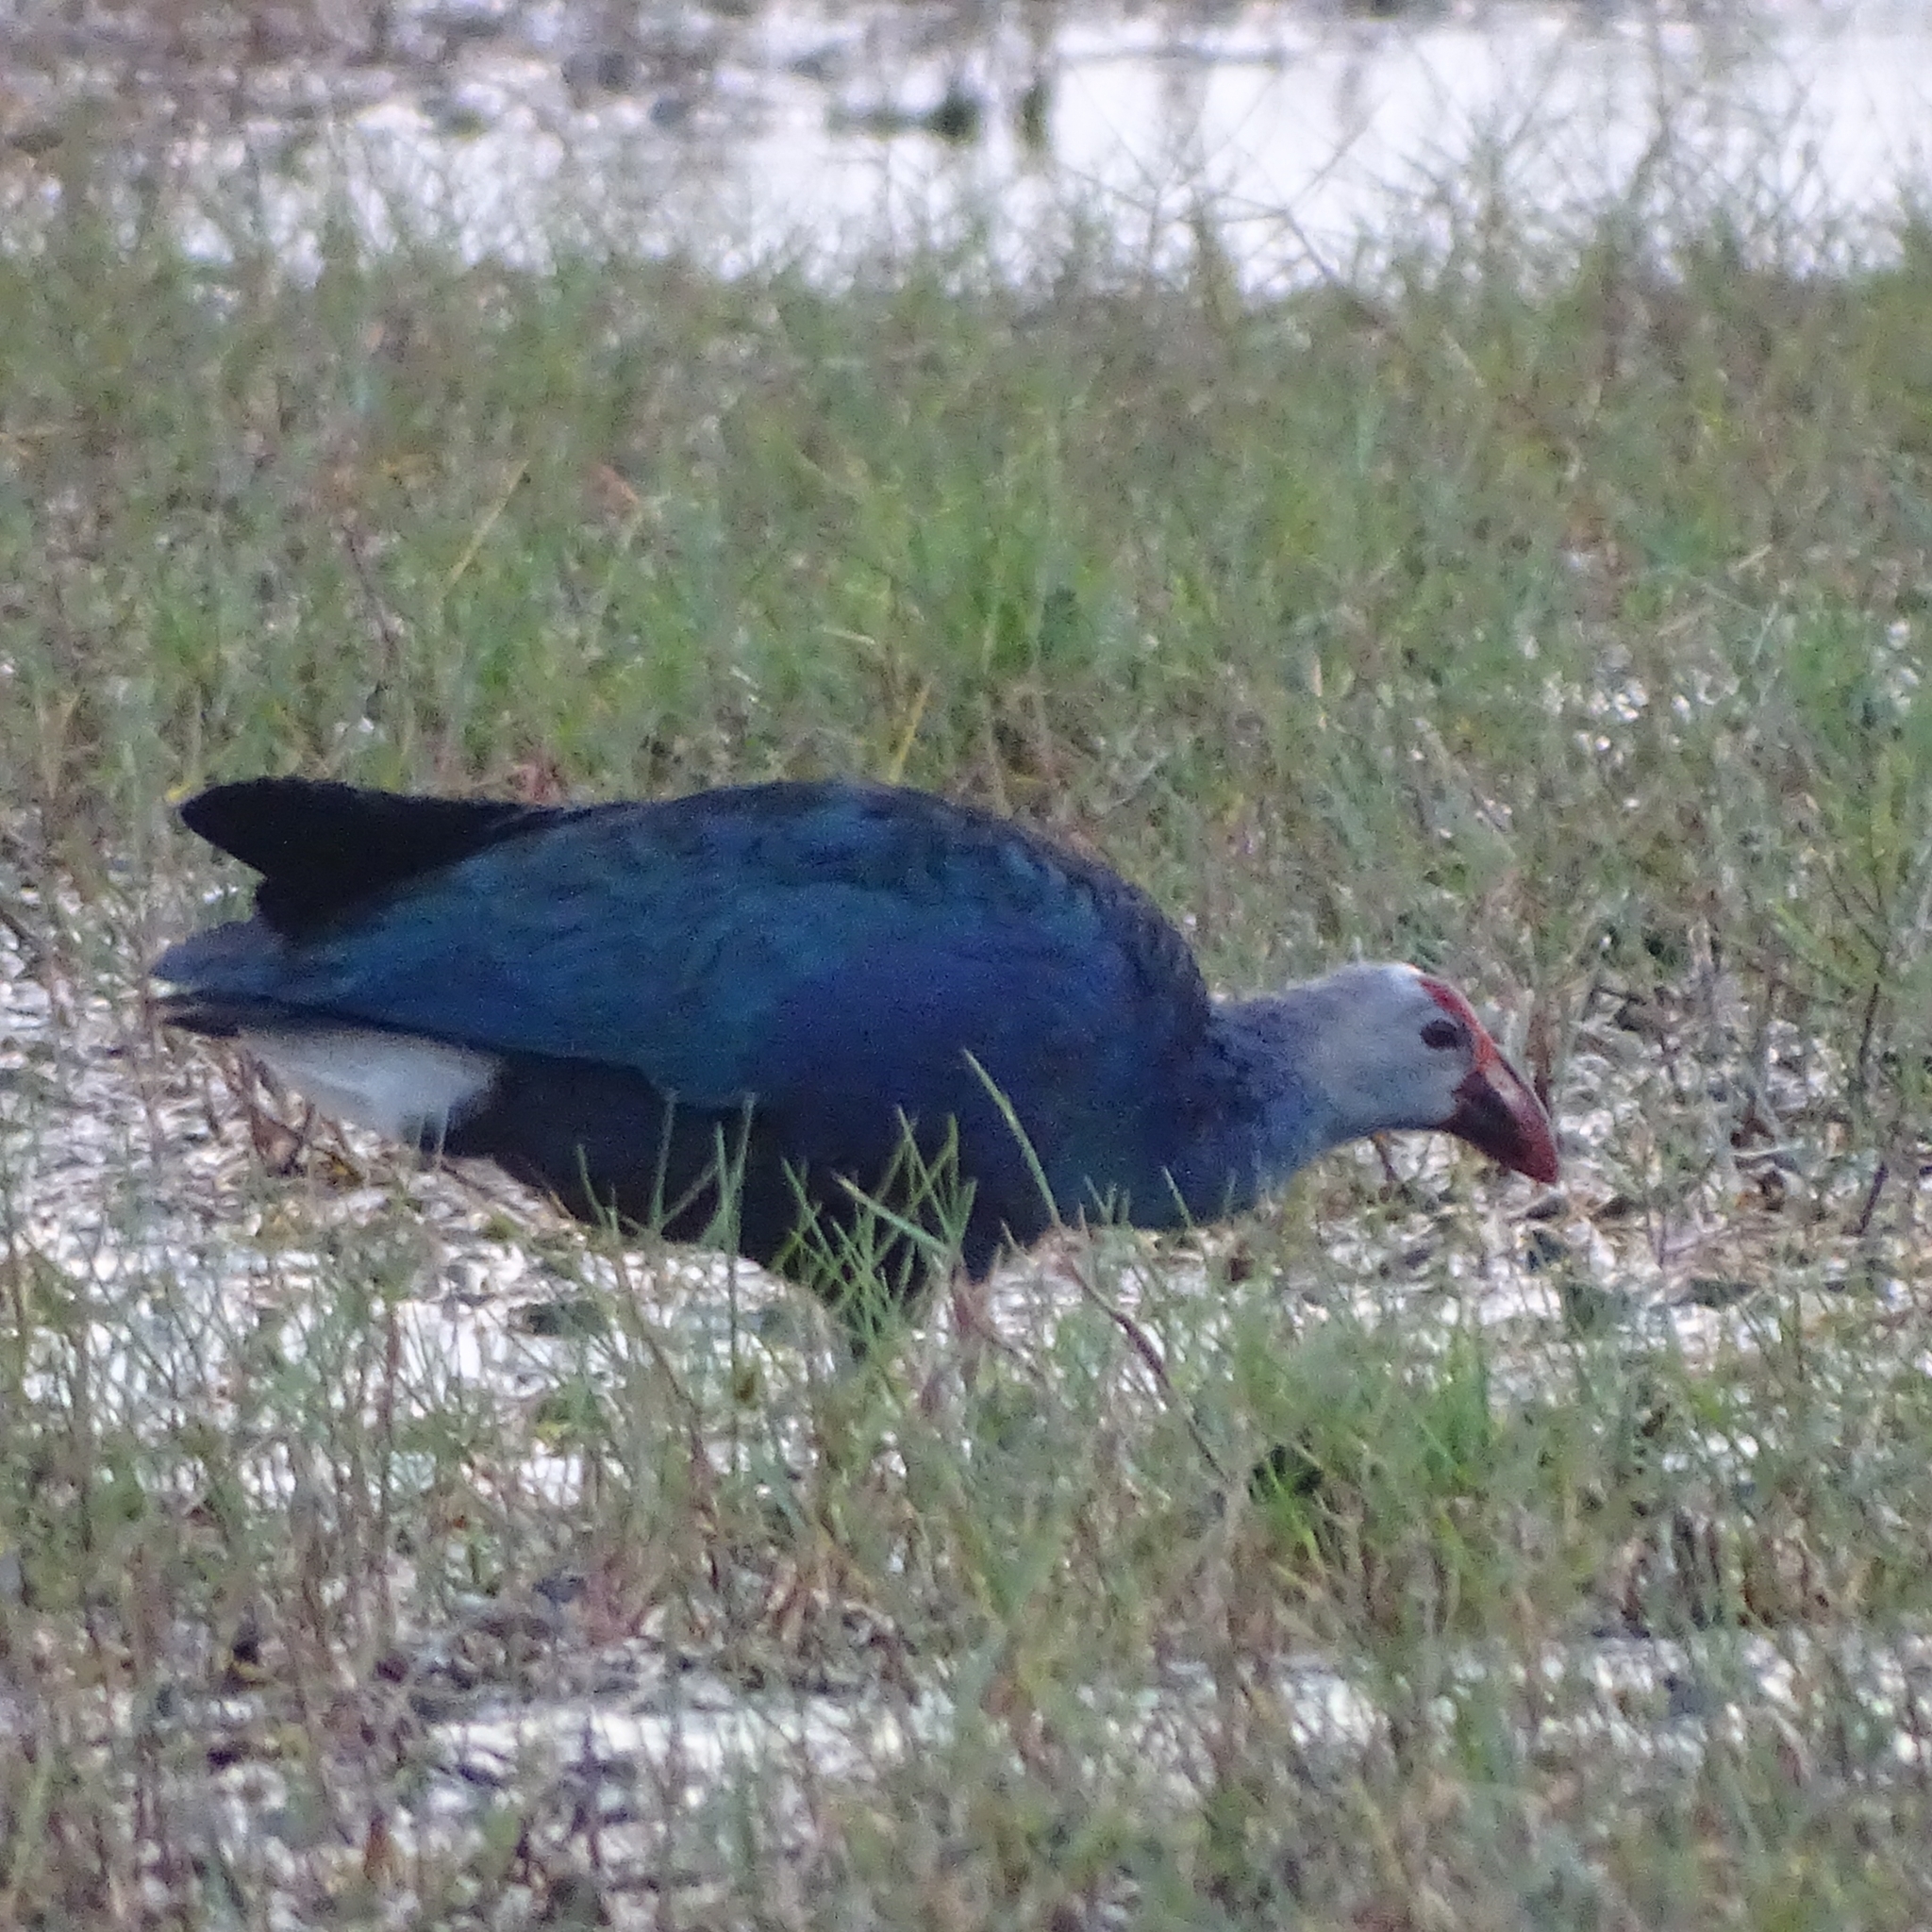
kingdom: Animalia
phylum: Chordata
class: Aves
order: Gruiformes
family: Rallidae
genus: Porphyrio
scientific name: Porphyrio porphyrio
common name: Purple swamphen
